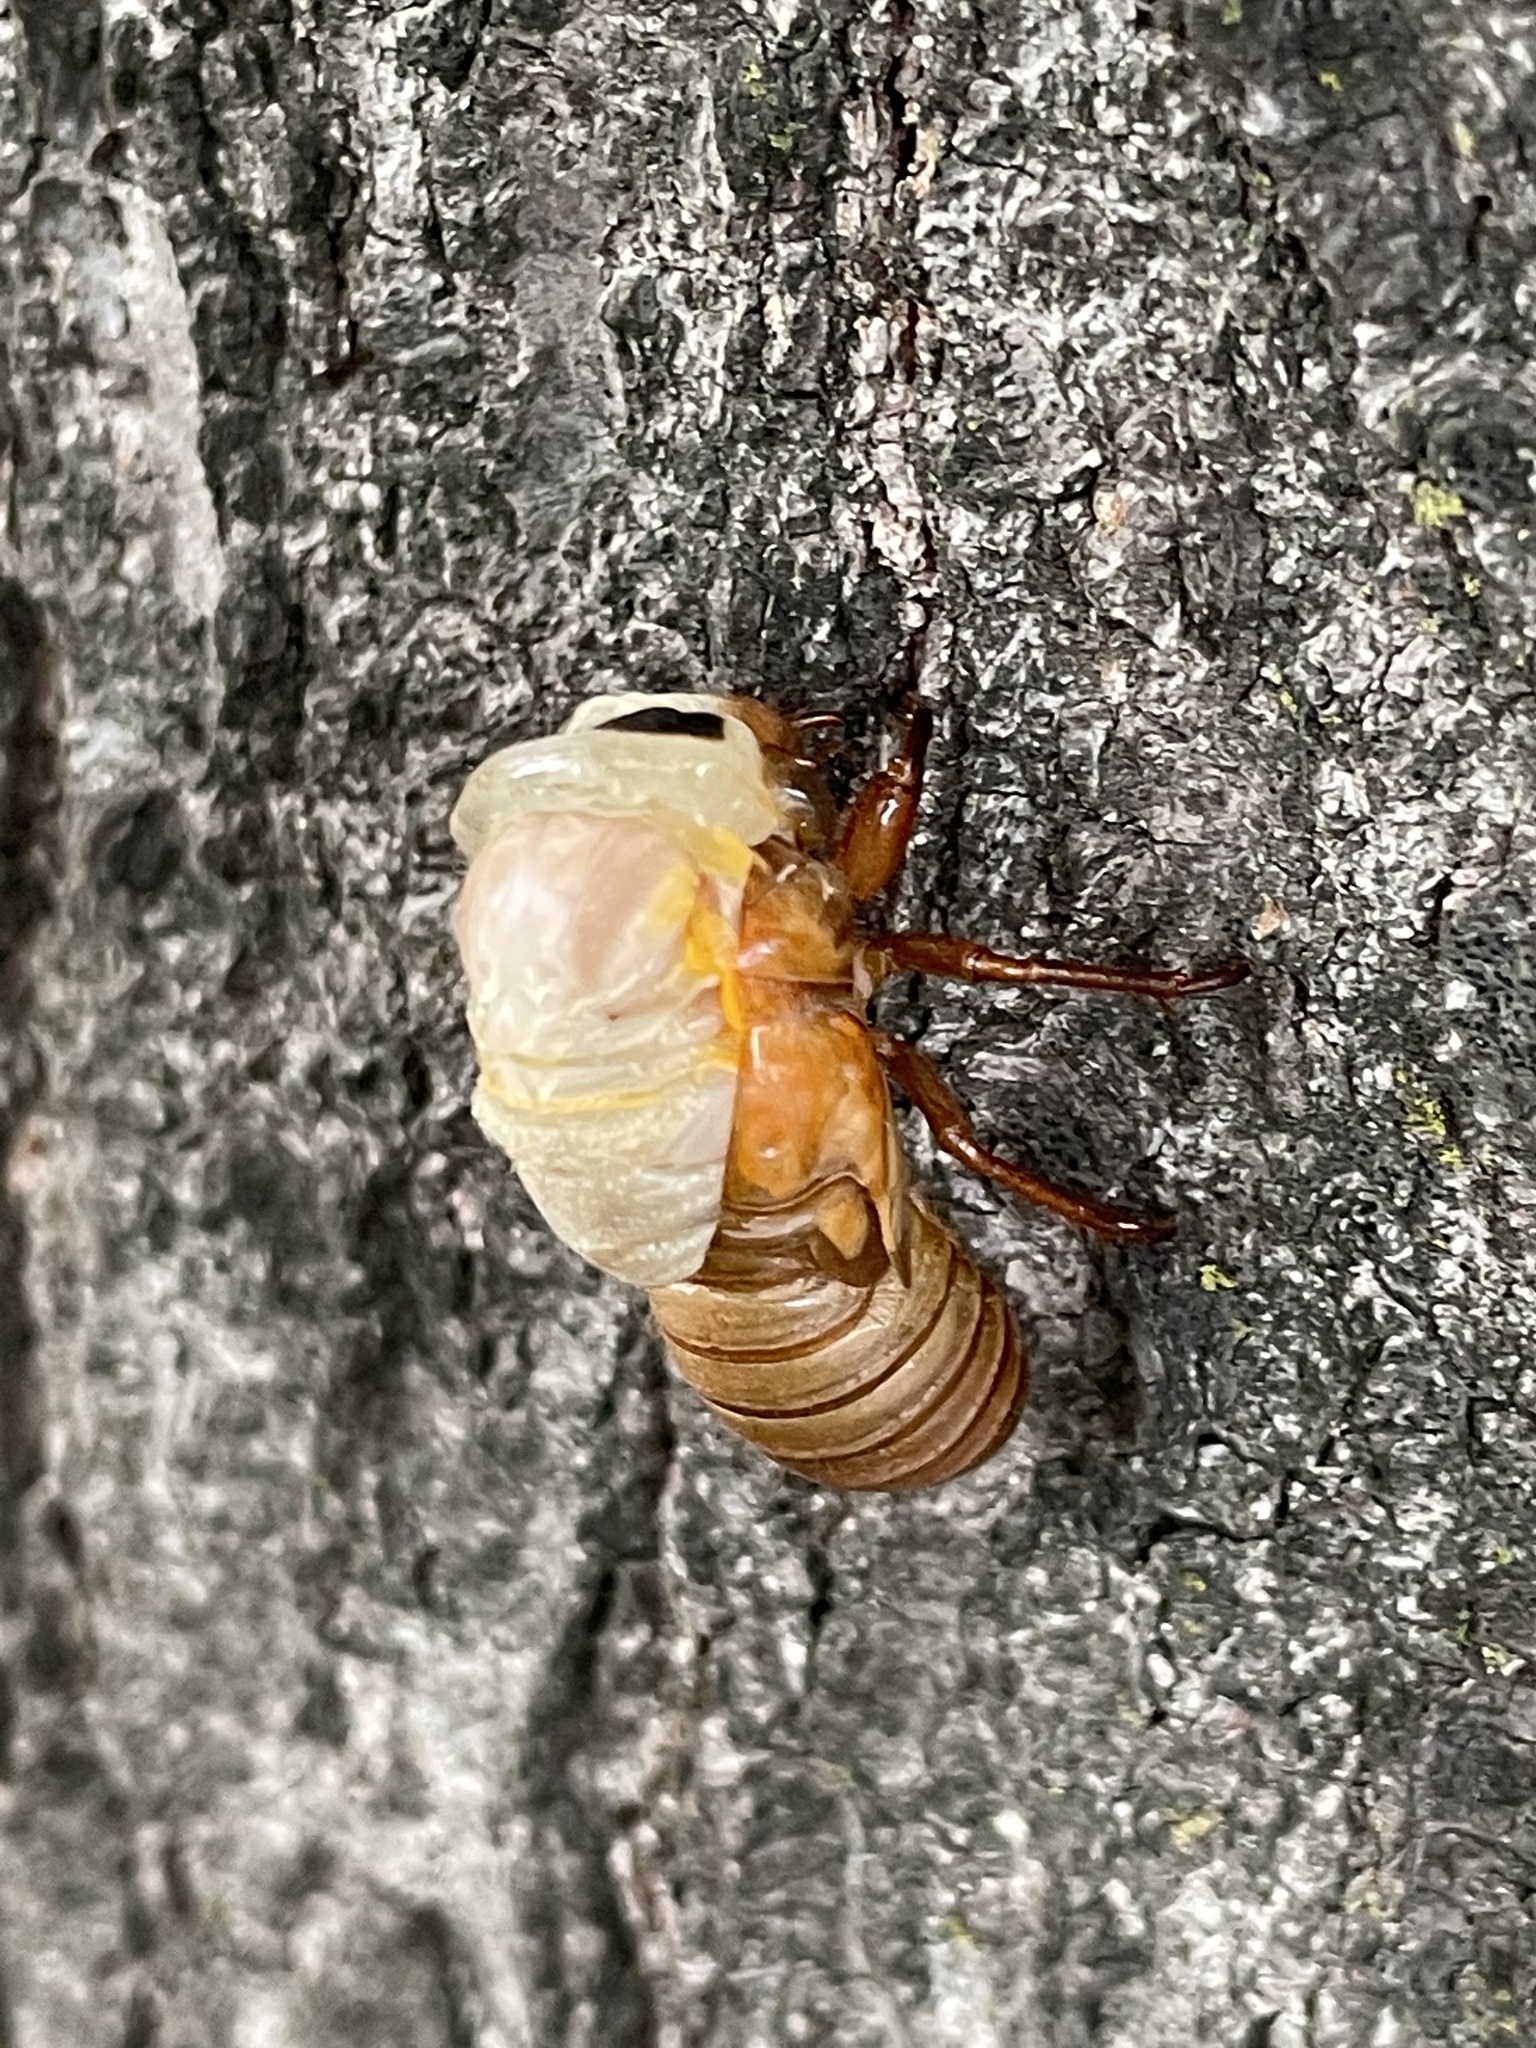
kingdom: Animalia
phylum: Arthropoda
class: Insecta
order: Hemiptera
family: Cicadidae
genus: Magicicada
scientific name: Magicicada
